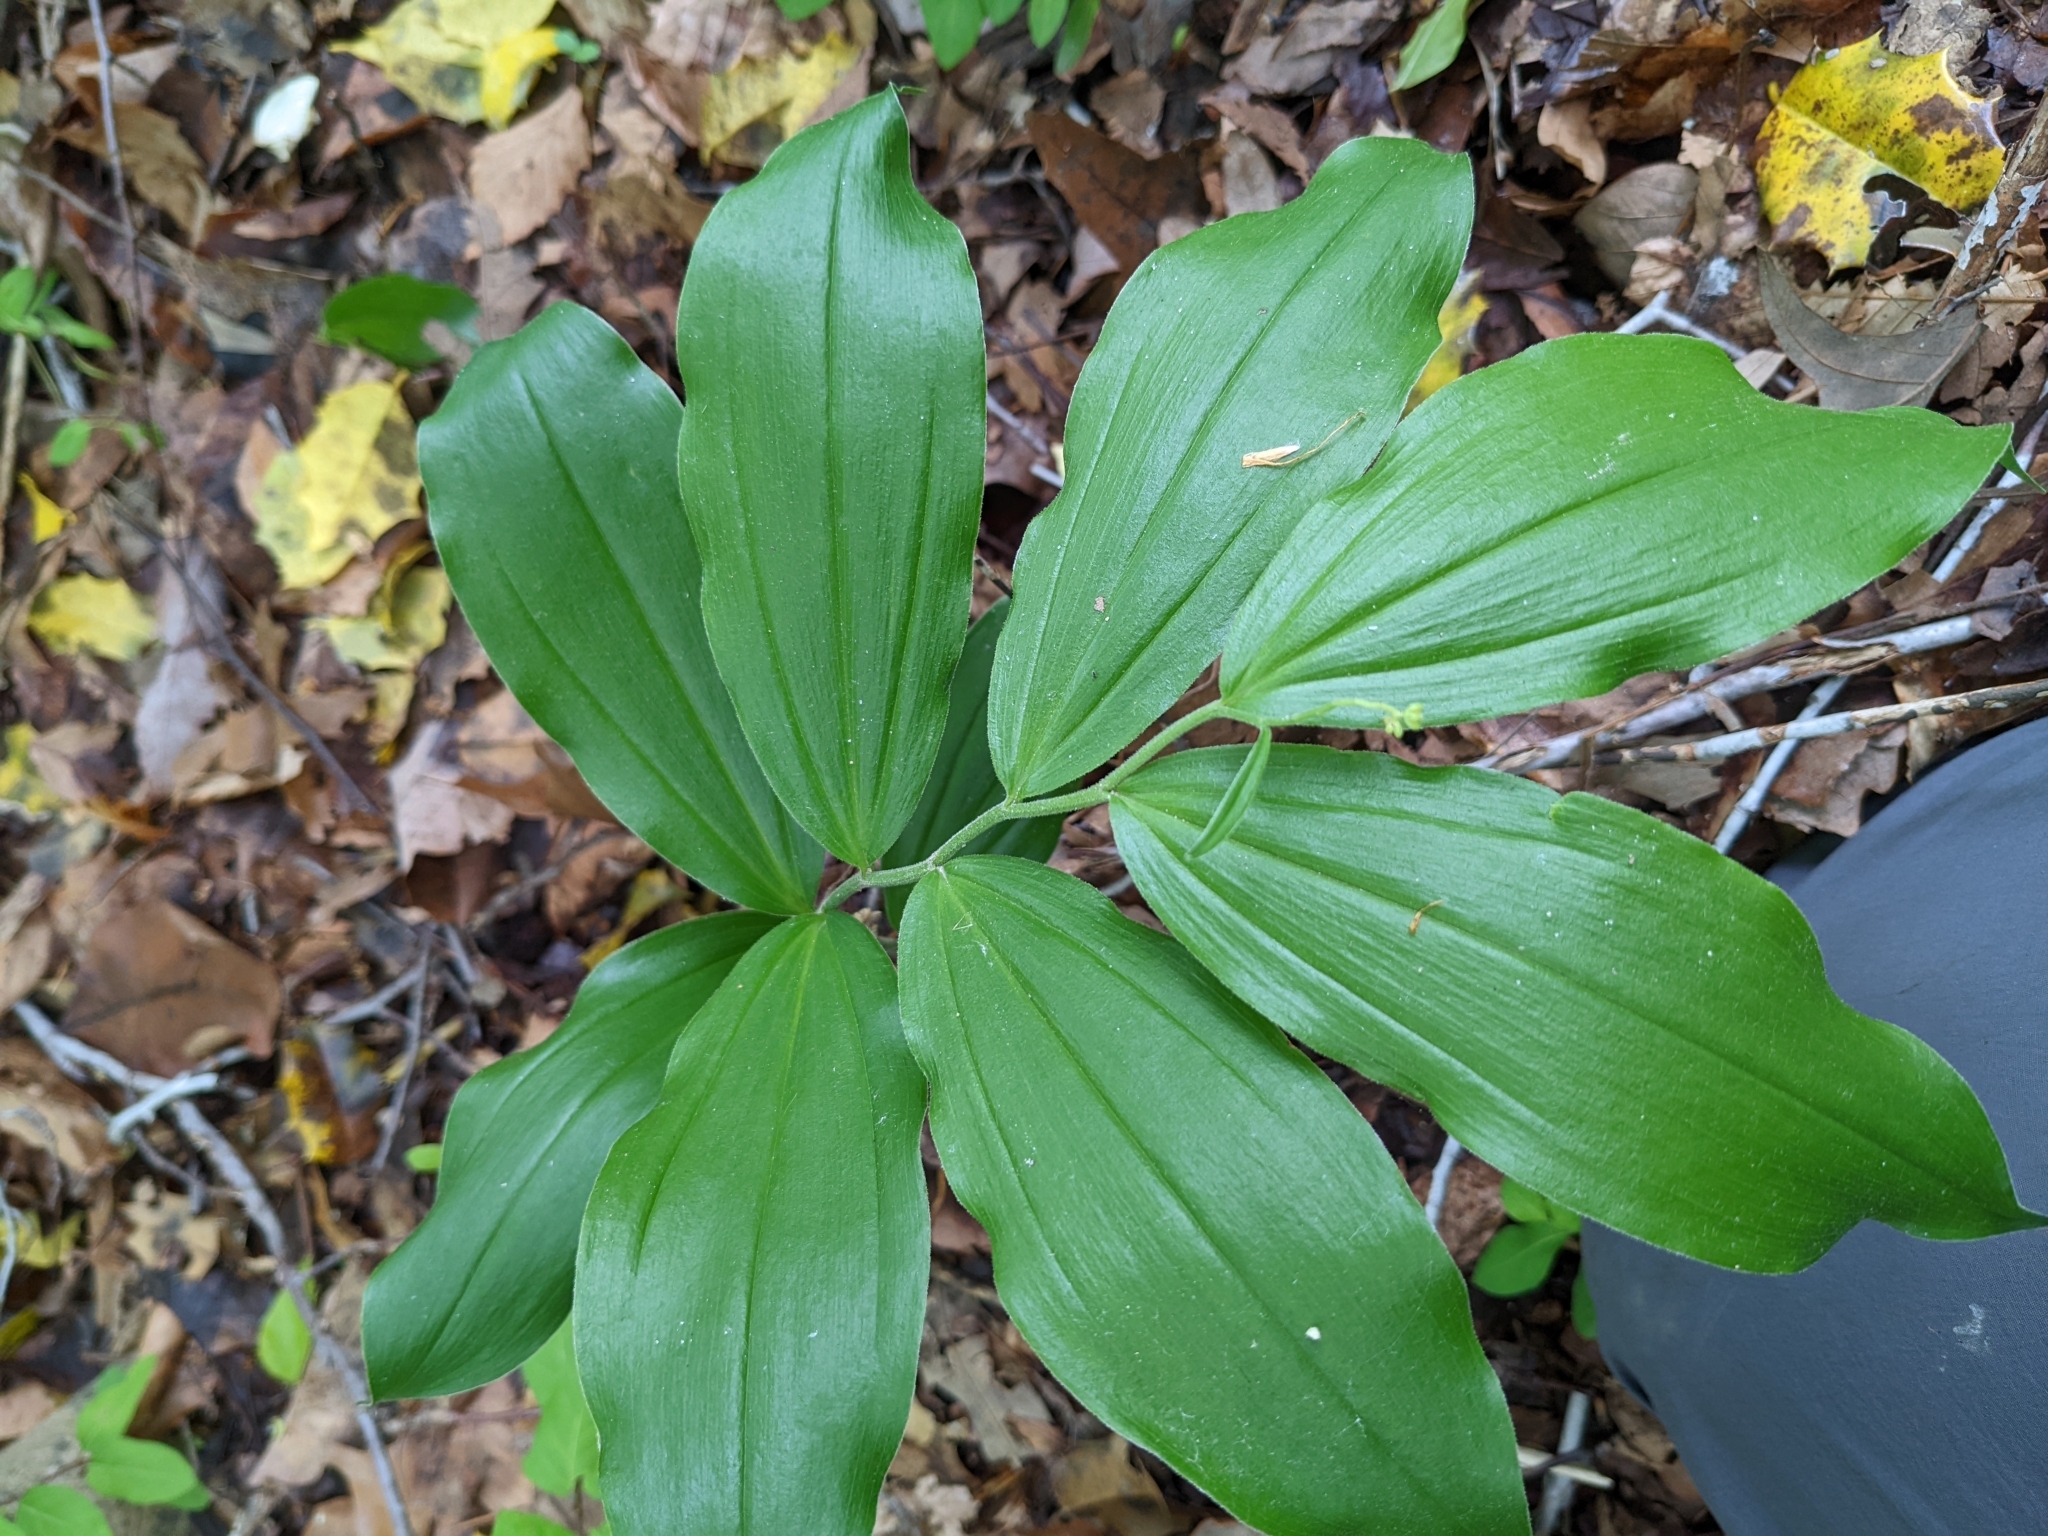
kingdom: Plantae
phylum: Tracheophyta
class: Liliopsida
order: Asparagales
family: Asparagaceae
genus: Maianthemum
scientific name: Maianthemum racemosum
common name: False spikenard
